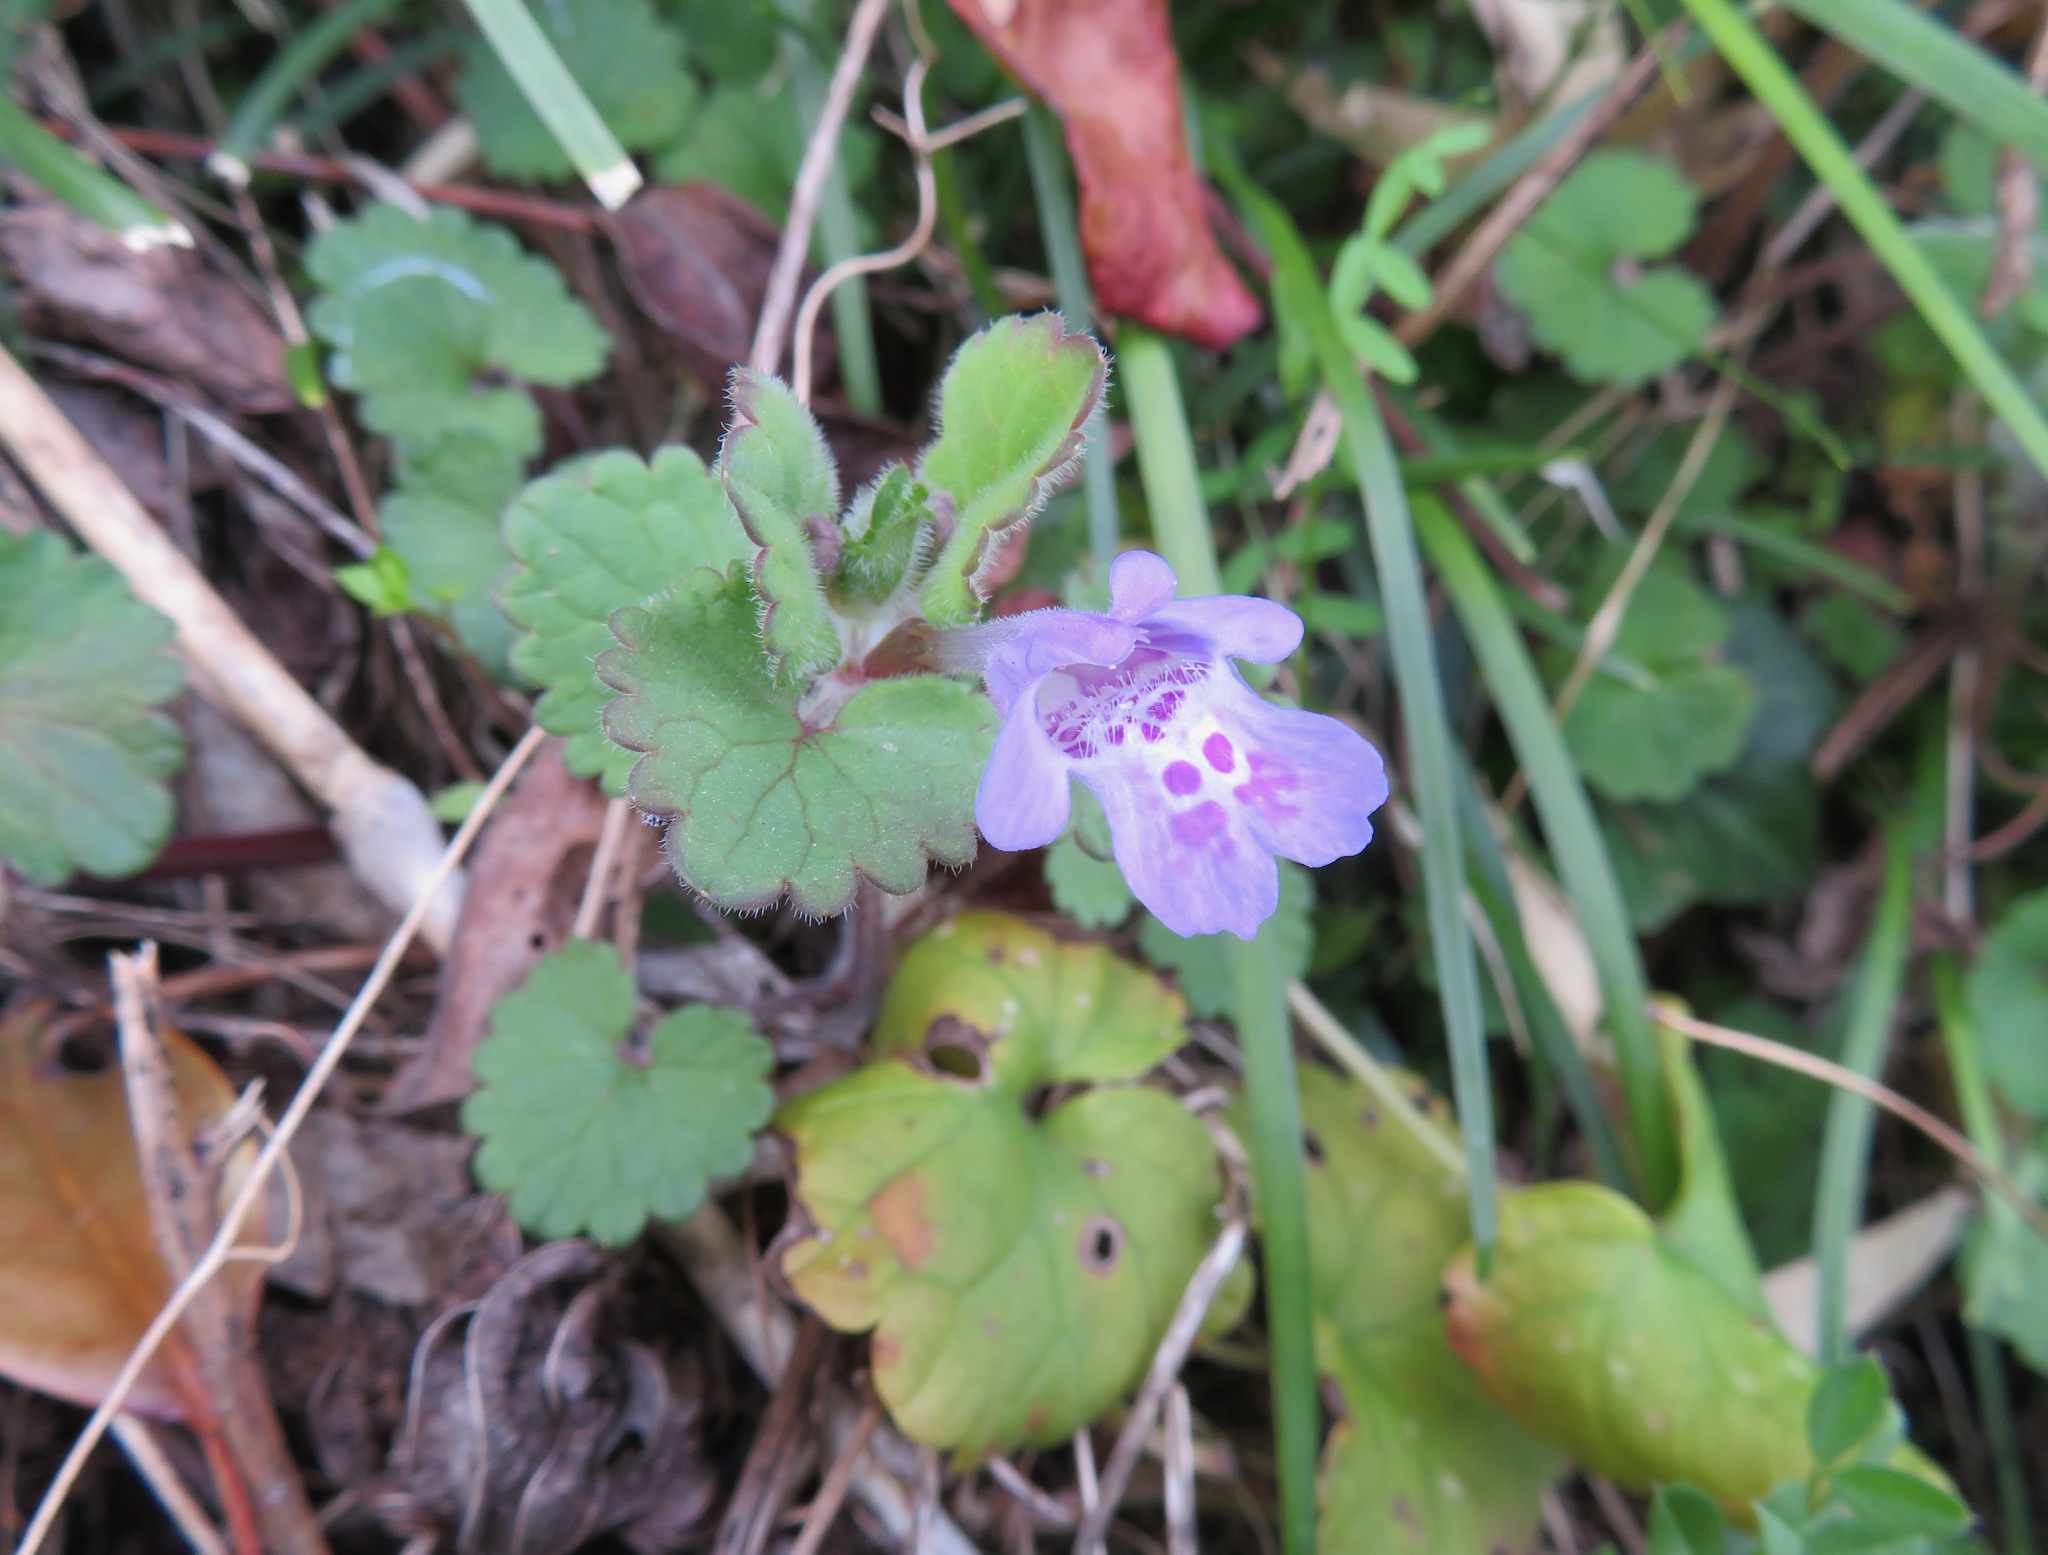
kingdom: Plantae
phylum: Tracheophyta
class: Magnoliopsida
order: Lamiales
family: Lamiaceae
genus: Glechoma
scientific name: Glechoma grandis
